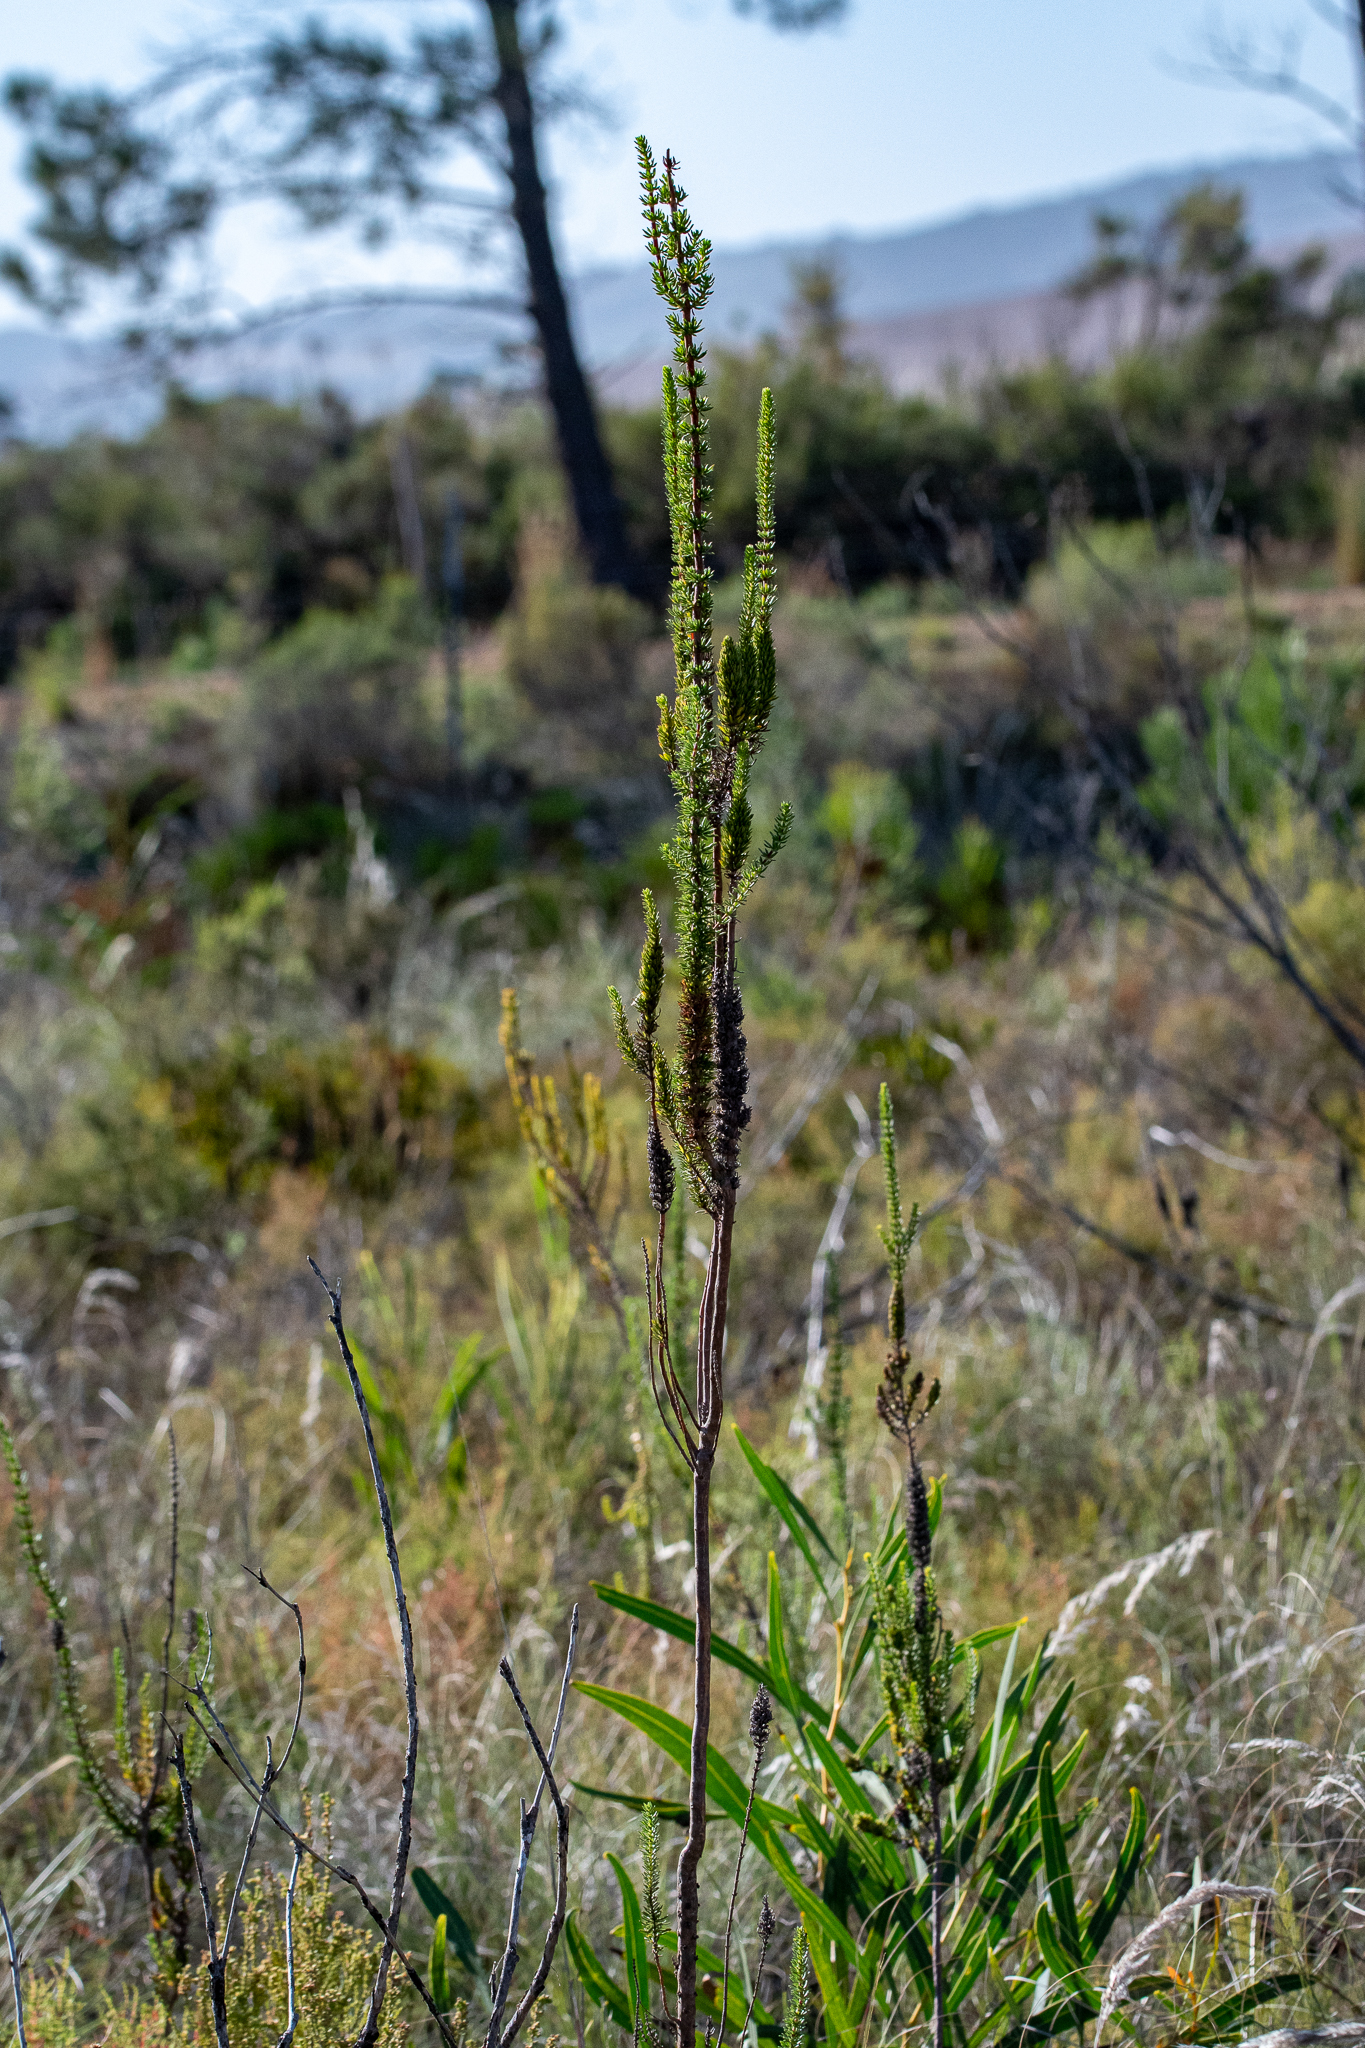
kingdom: Plantae
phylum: Tracheophyta
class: Magnoliopsida
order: Gentianales
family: Rubiaceae
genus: Anthospermum
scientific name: Anthospermum aethiopicum
